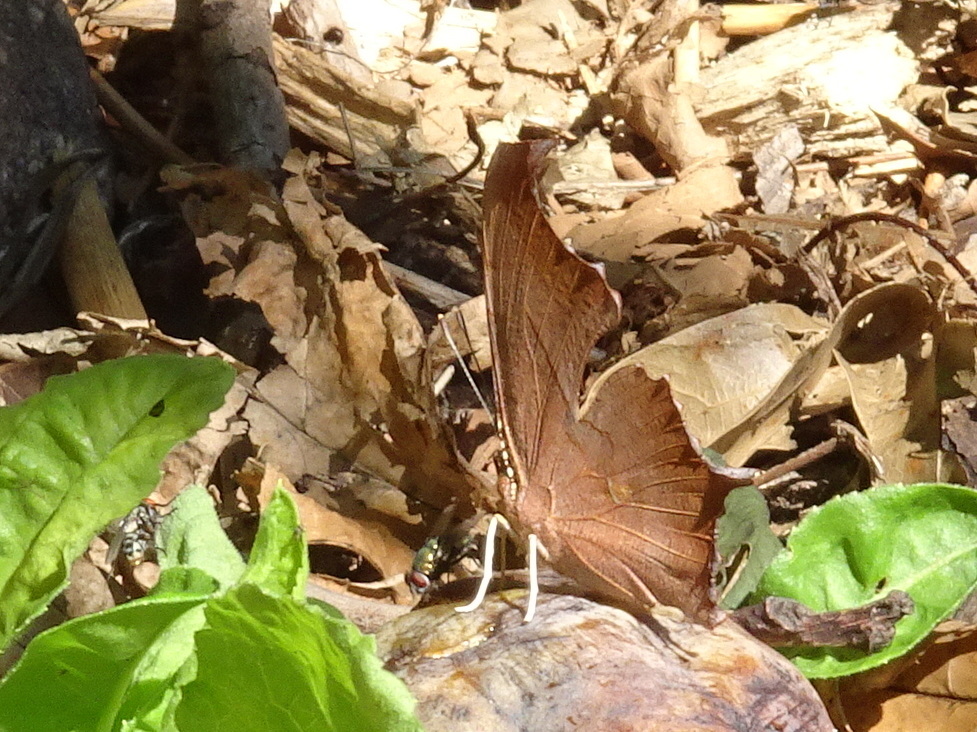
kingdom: Animalia
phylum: Arthropoda
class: Insecta
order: Lepidoptera
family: Nymphalidae
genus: Polygonia
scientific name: Polygonia interrogationis
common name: Question mark
